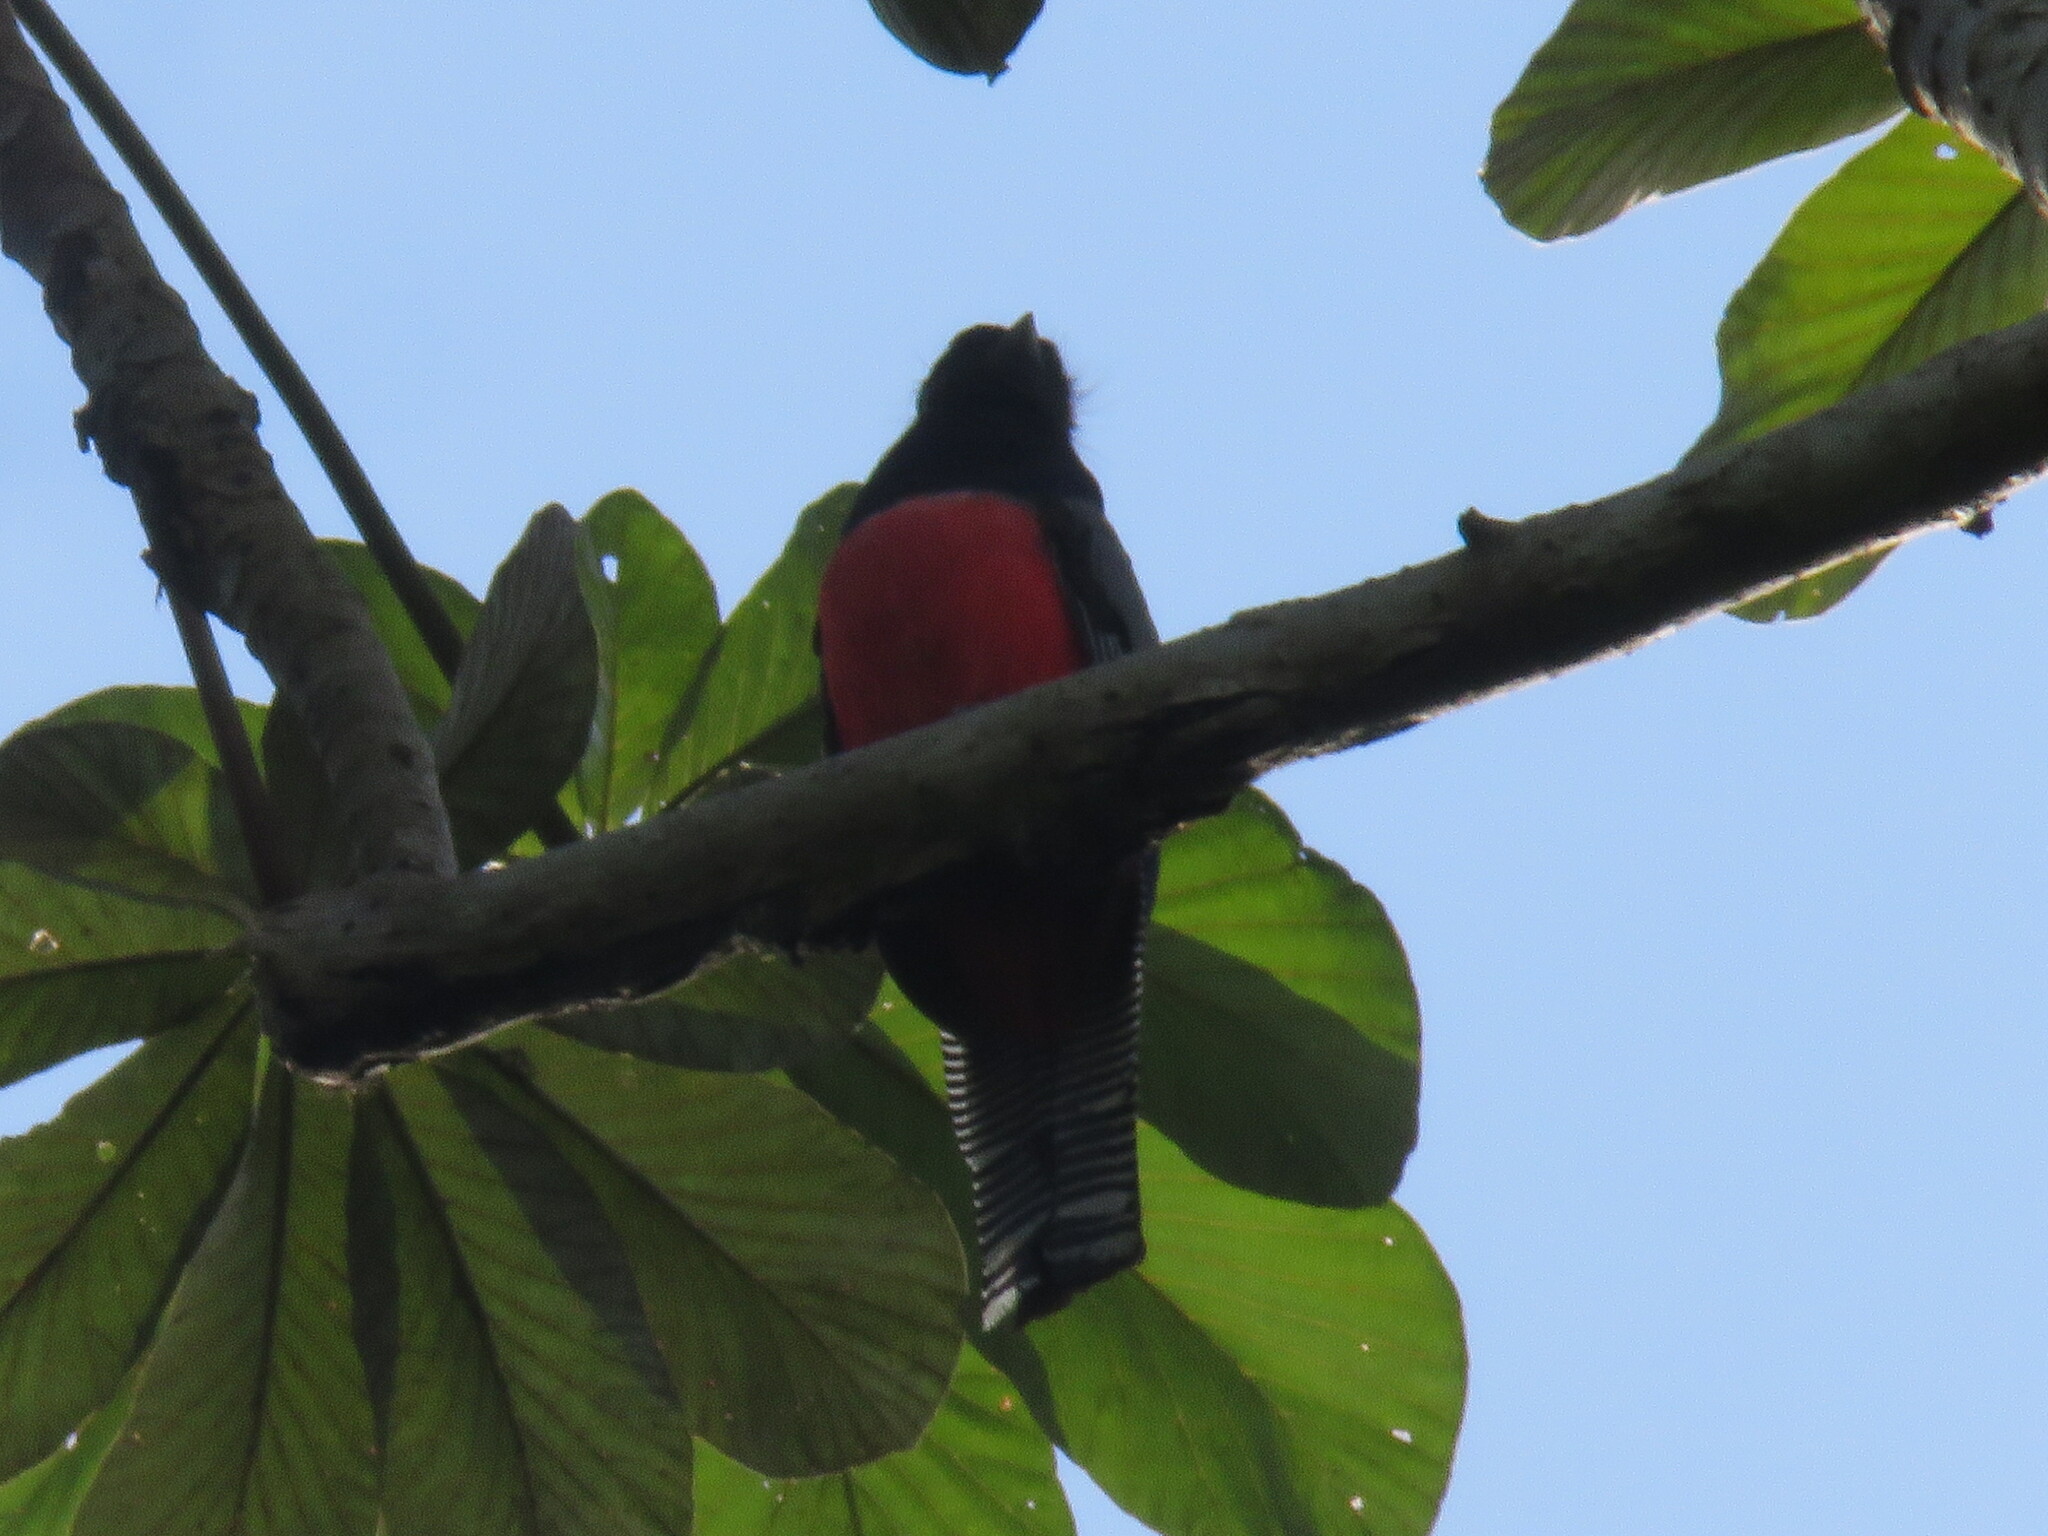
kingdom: Animalia
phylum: Chordata
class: Aves
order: Trogoniformes
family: Trogonidae
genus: Trogon
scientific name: Trogon curucui
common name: Blue-crowned trogon
